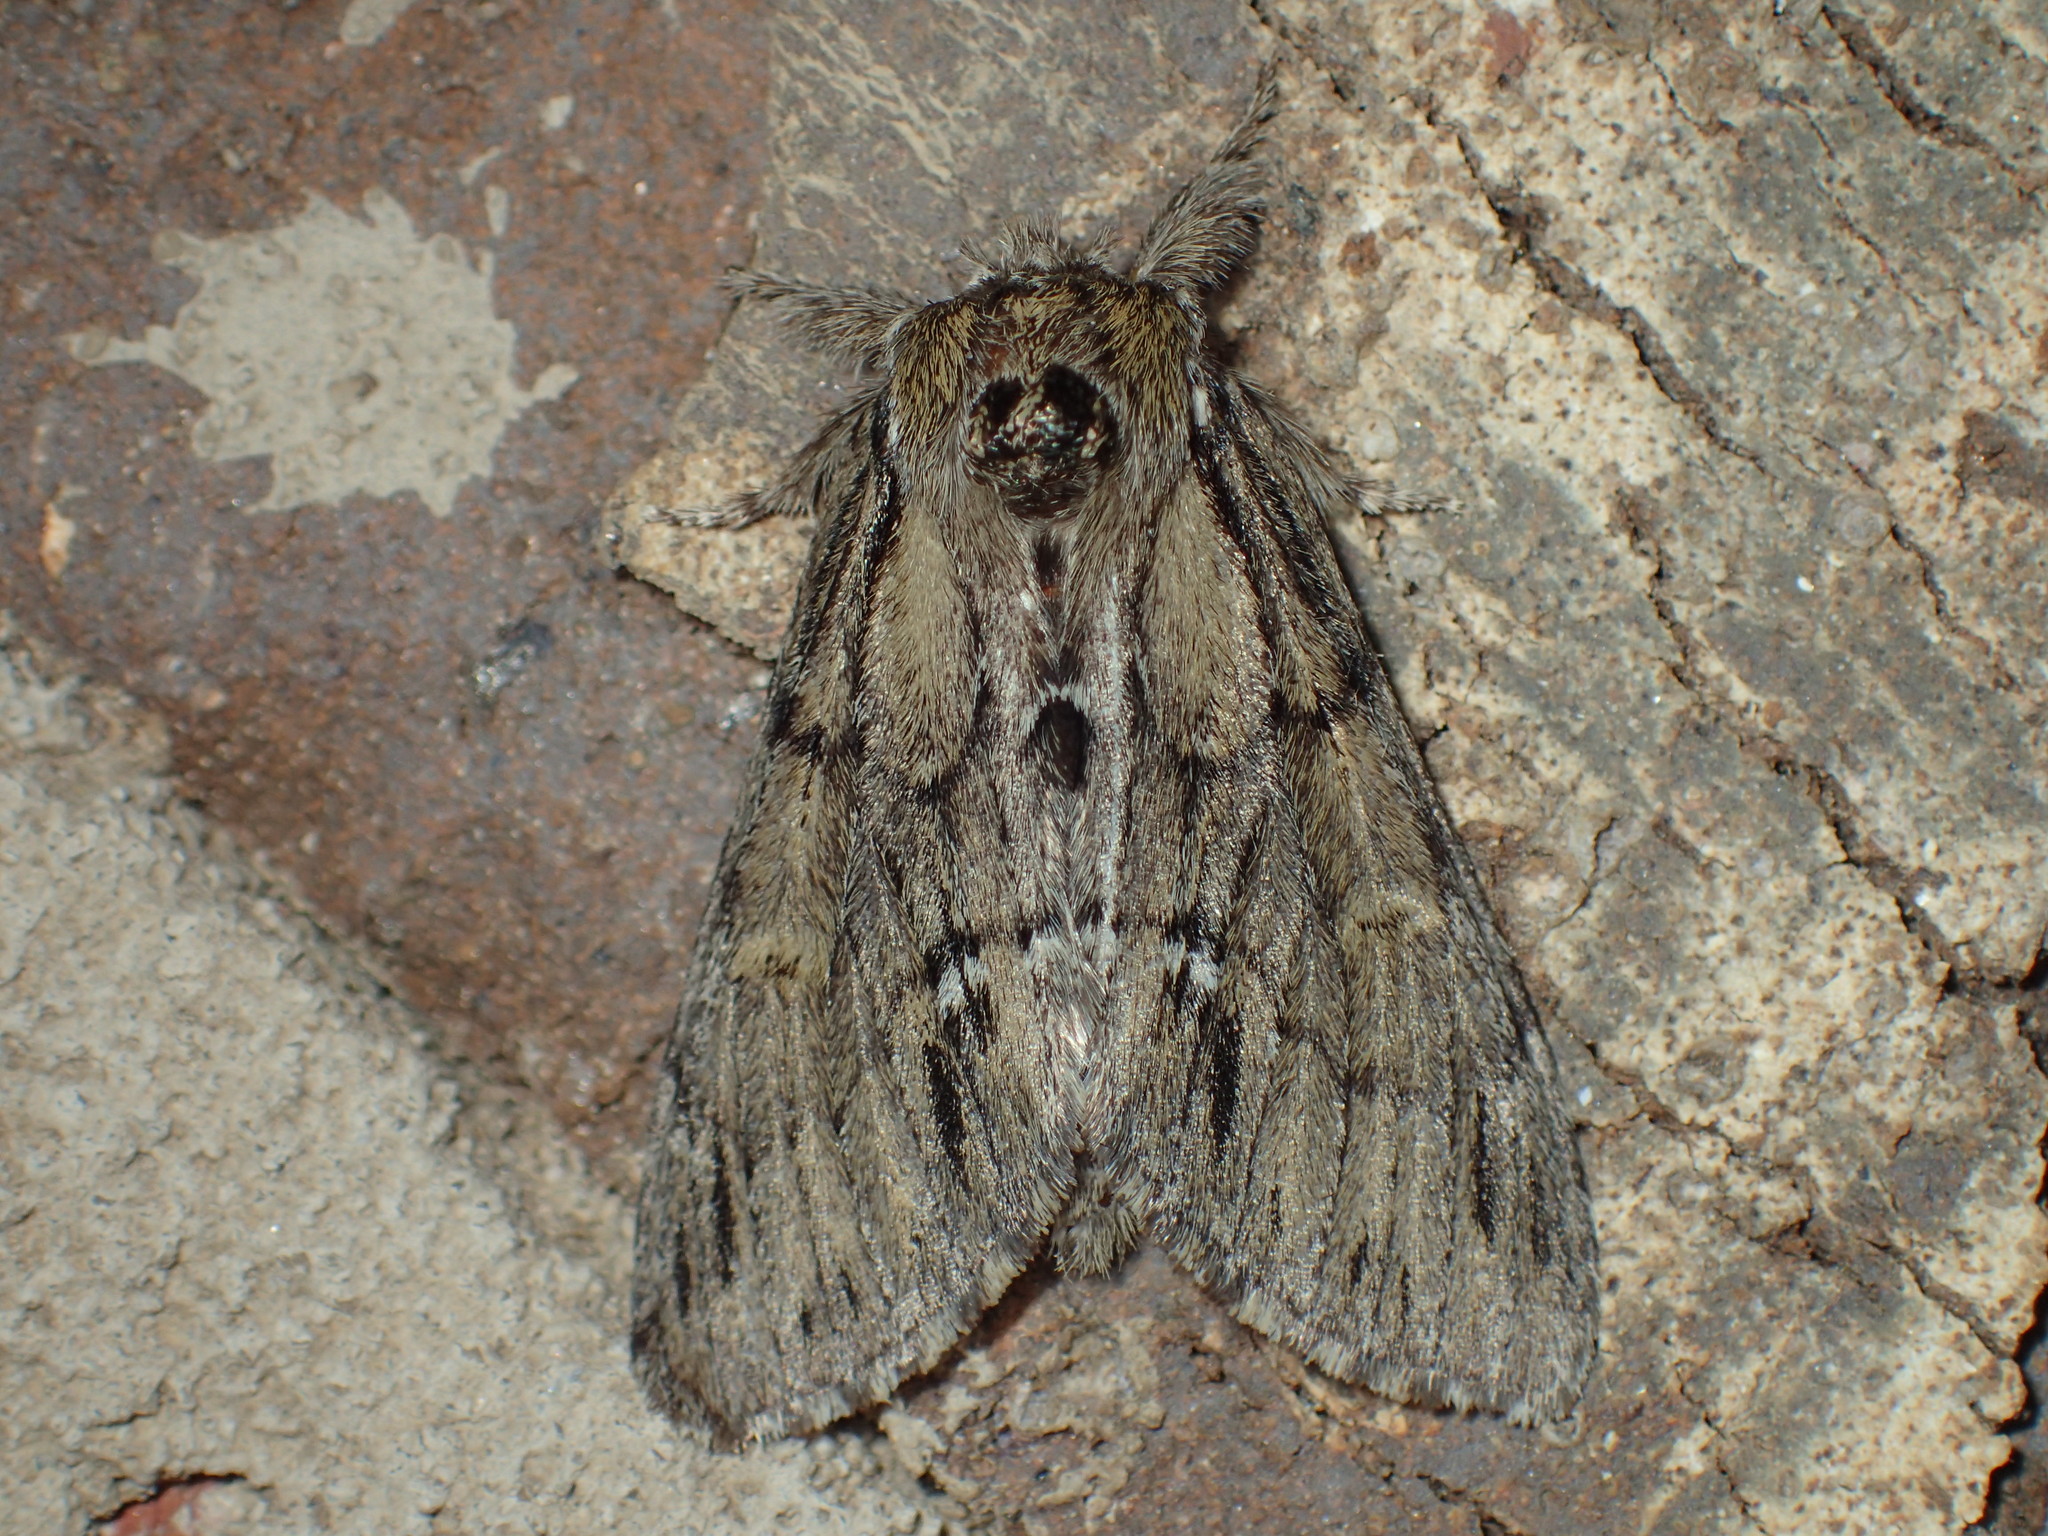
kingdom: Animalia
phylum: Arthropoda
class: Insecta
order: Lepidoptera
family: Notodontidae
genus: Paraeschra
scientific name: Paraeschra georgica
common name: Georgian prominent
